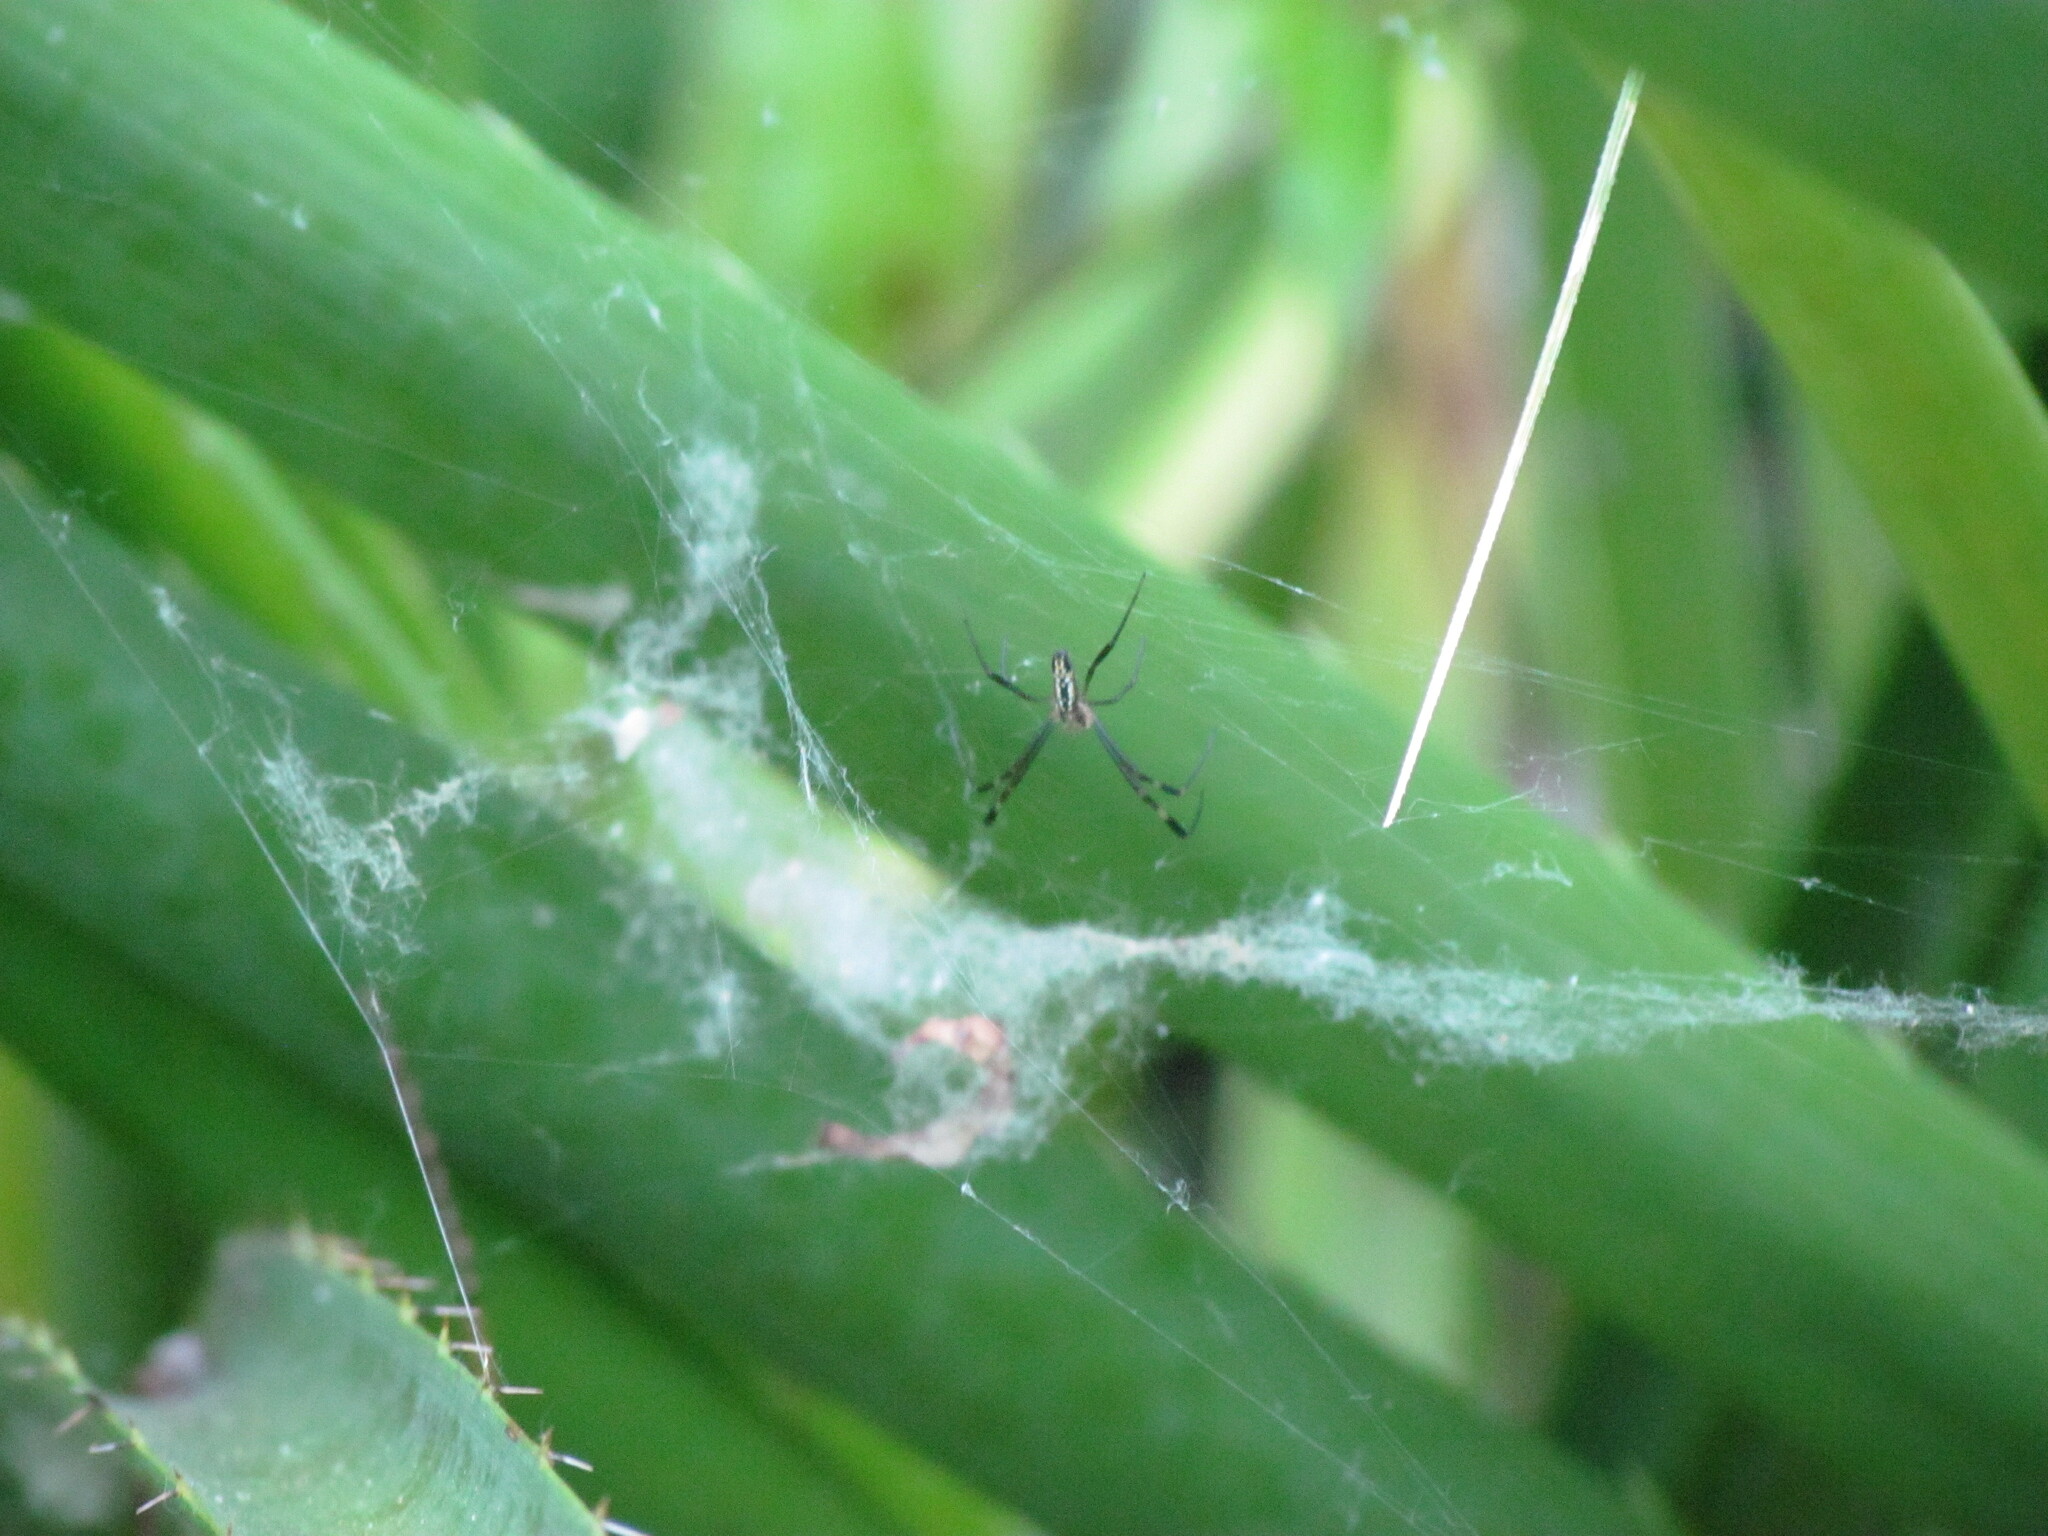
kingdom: Animalia
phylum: Arthropoda
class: Arachnida
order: Araneae
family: Araneidae
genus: Trichonephila
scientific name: Trichonephila clavipes
